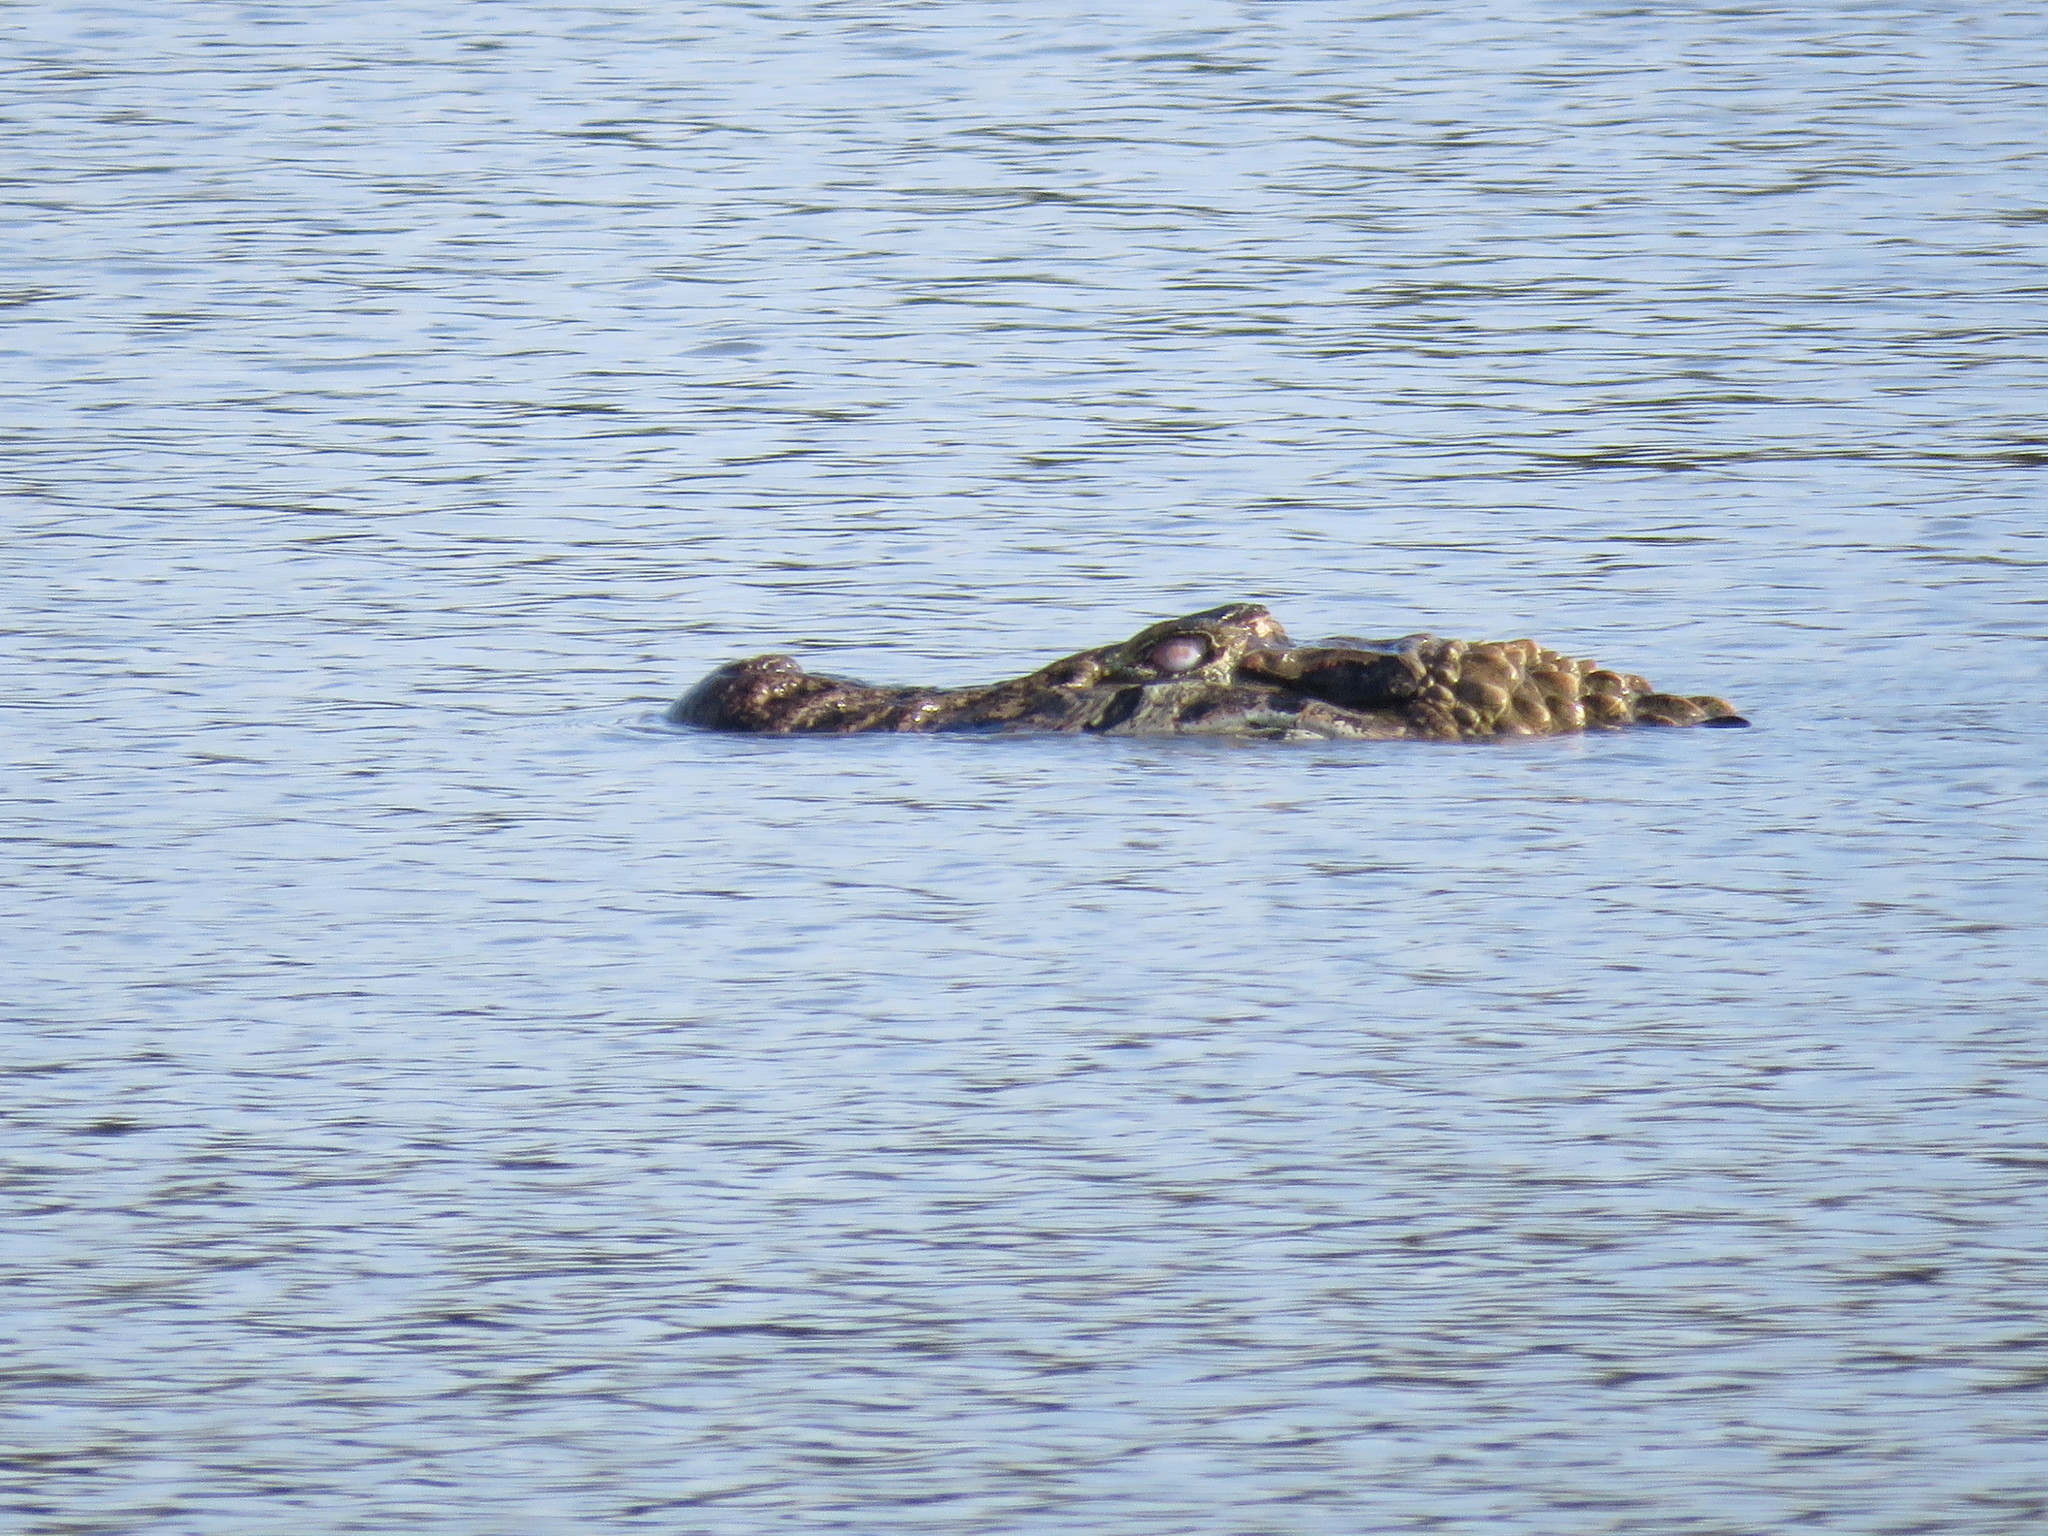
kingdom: Animalia
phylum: Chordata
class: Crocodylia
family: Alligatoridae
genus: Melanosuchus
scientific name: Melanosuchus niger
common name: Black caiman
